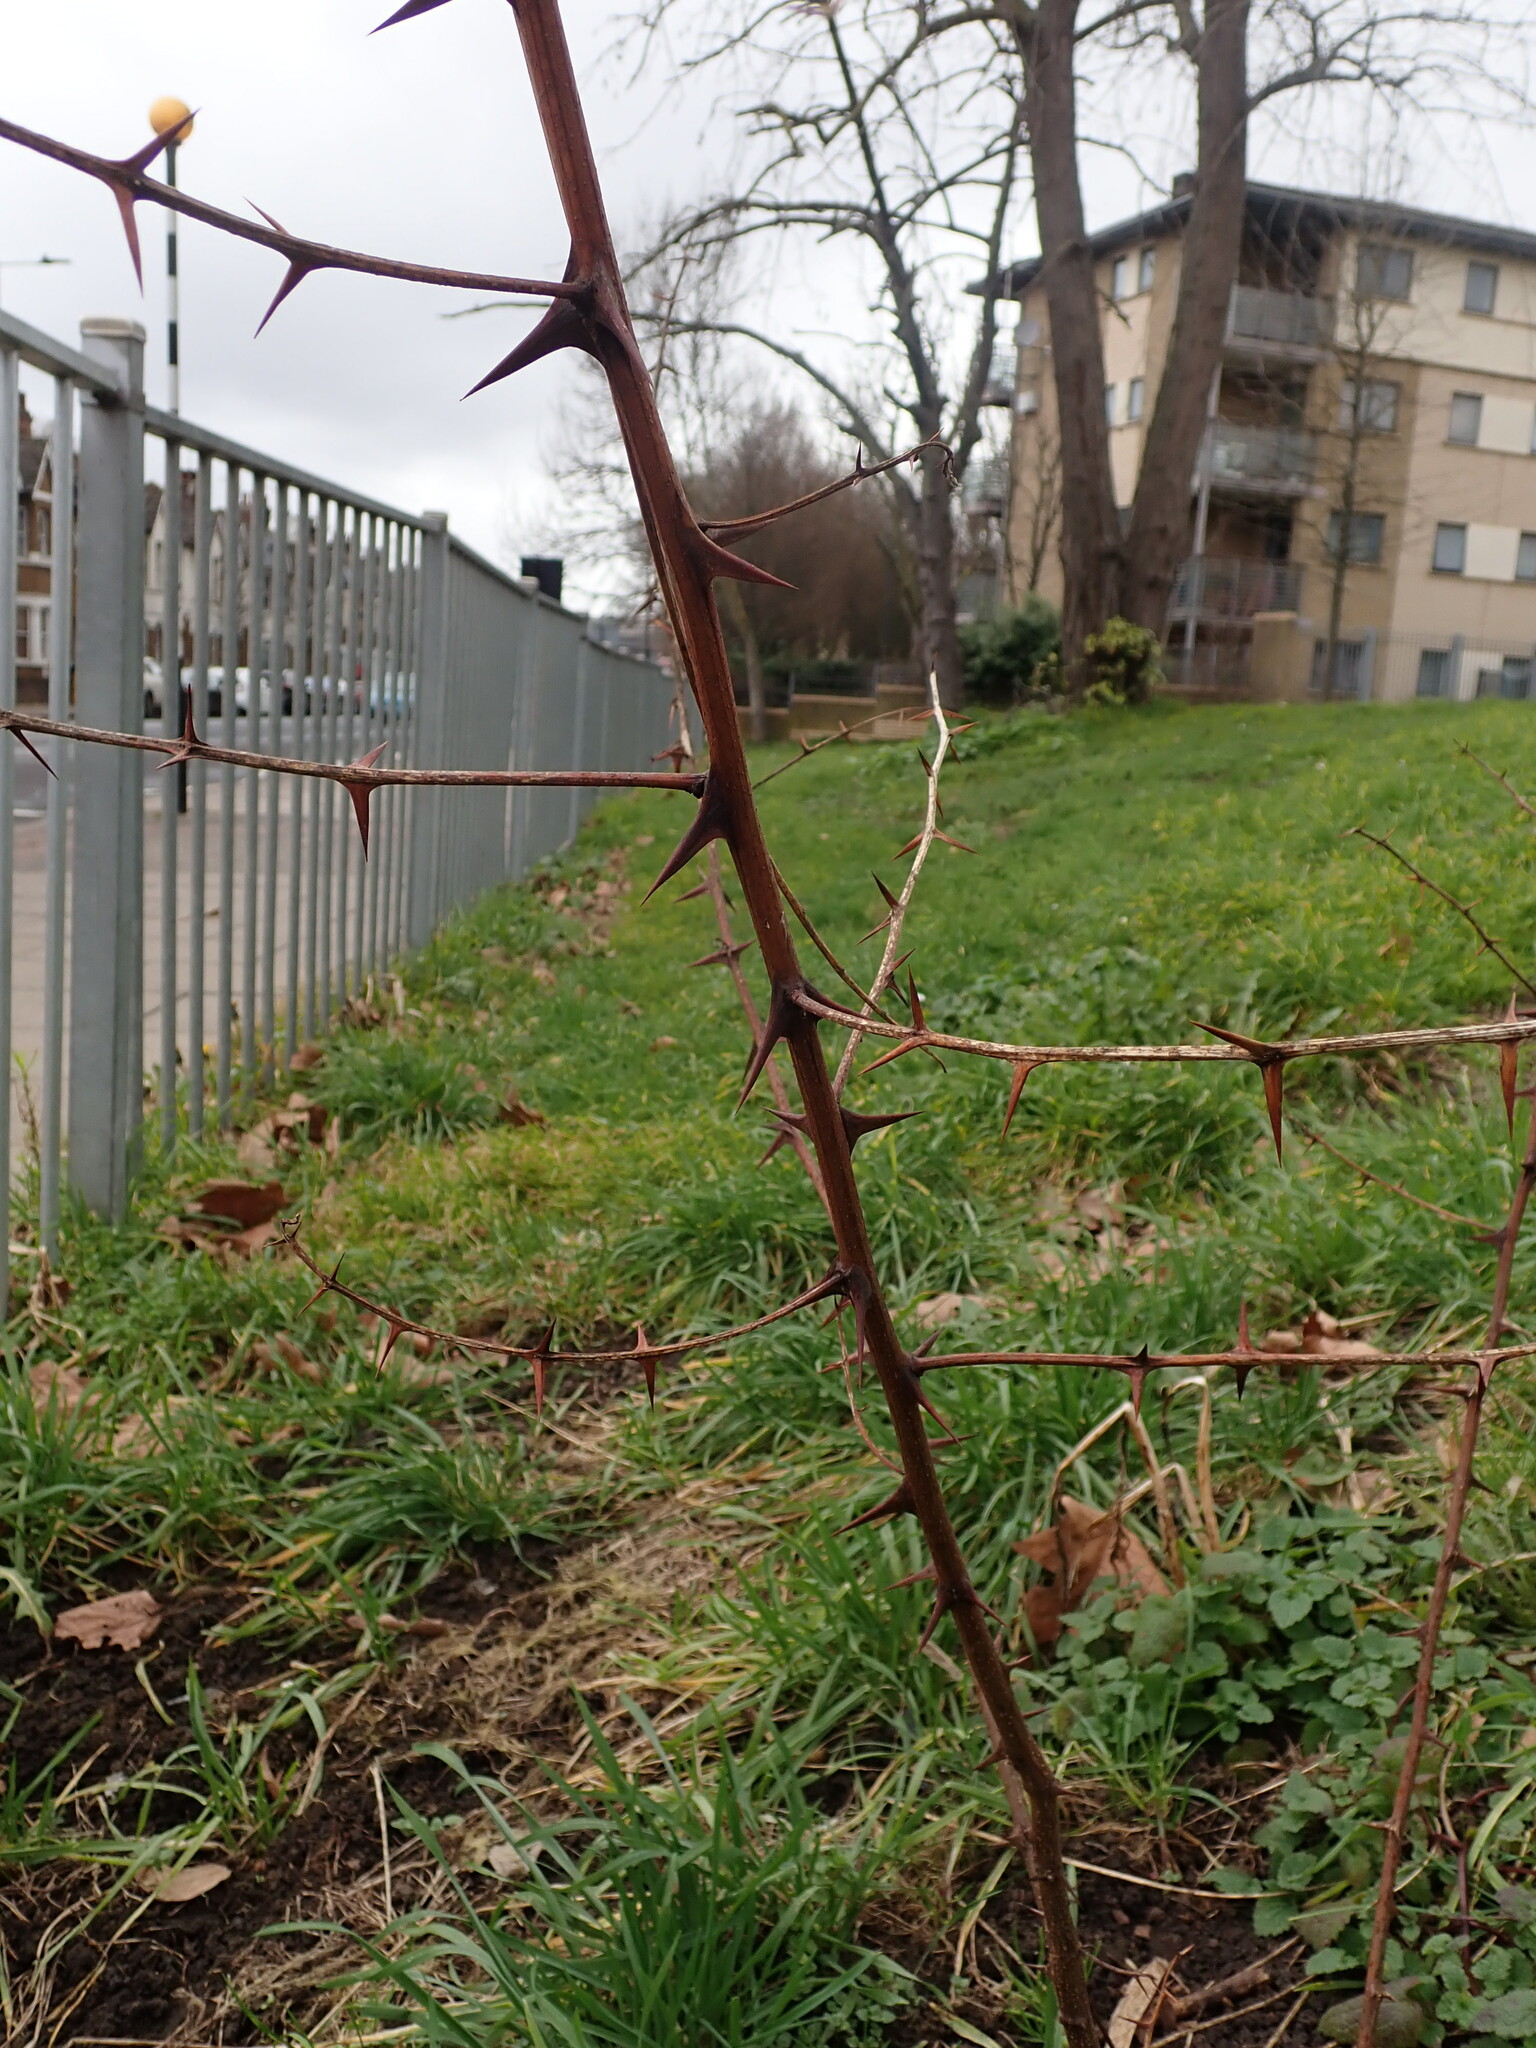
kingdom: Plantae
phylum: Tracheophyta
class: Magnoliopsida
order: Fabales
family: Fabaceae
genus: Robinia
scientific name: Robinia pseudoacacia
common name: Black locust
